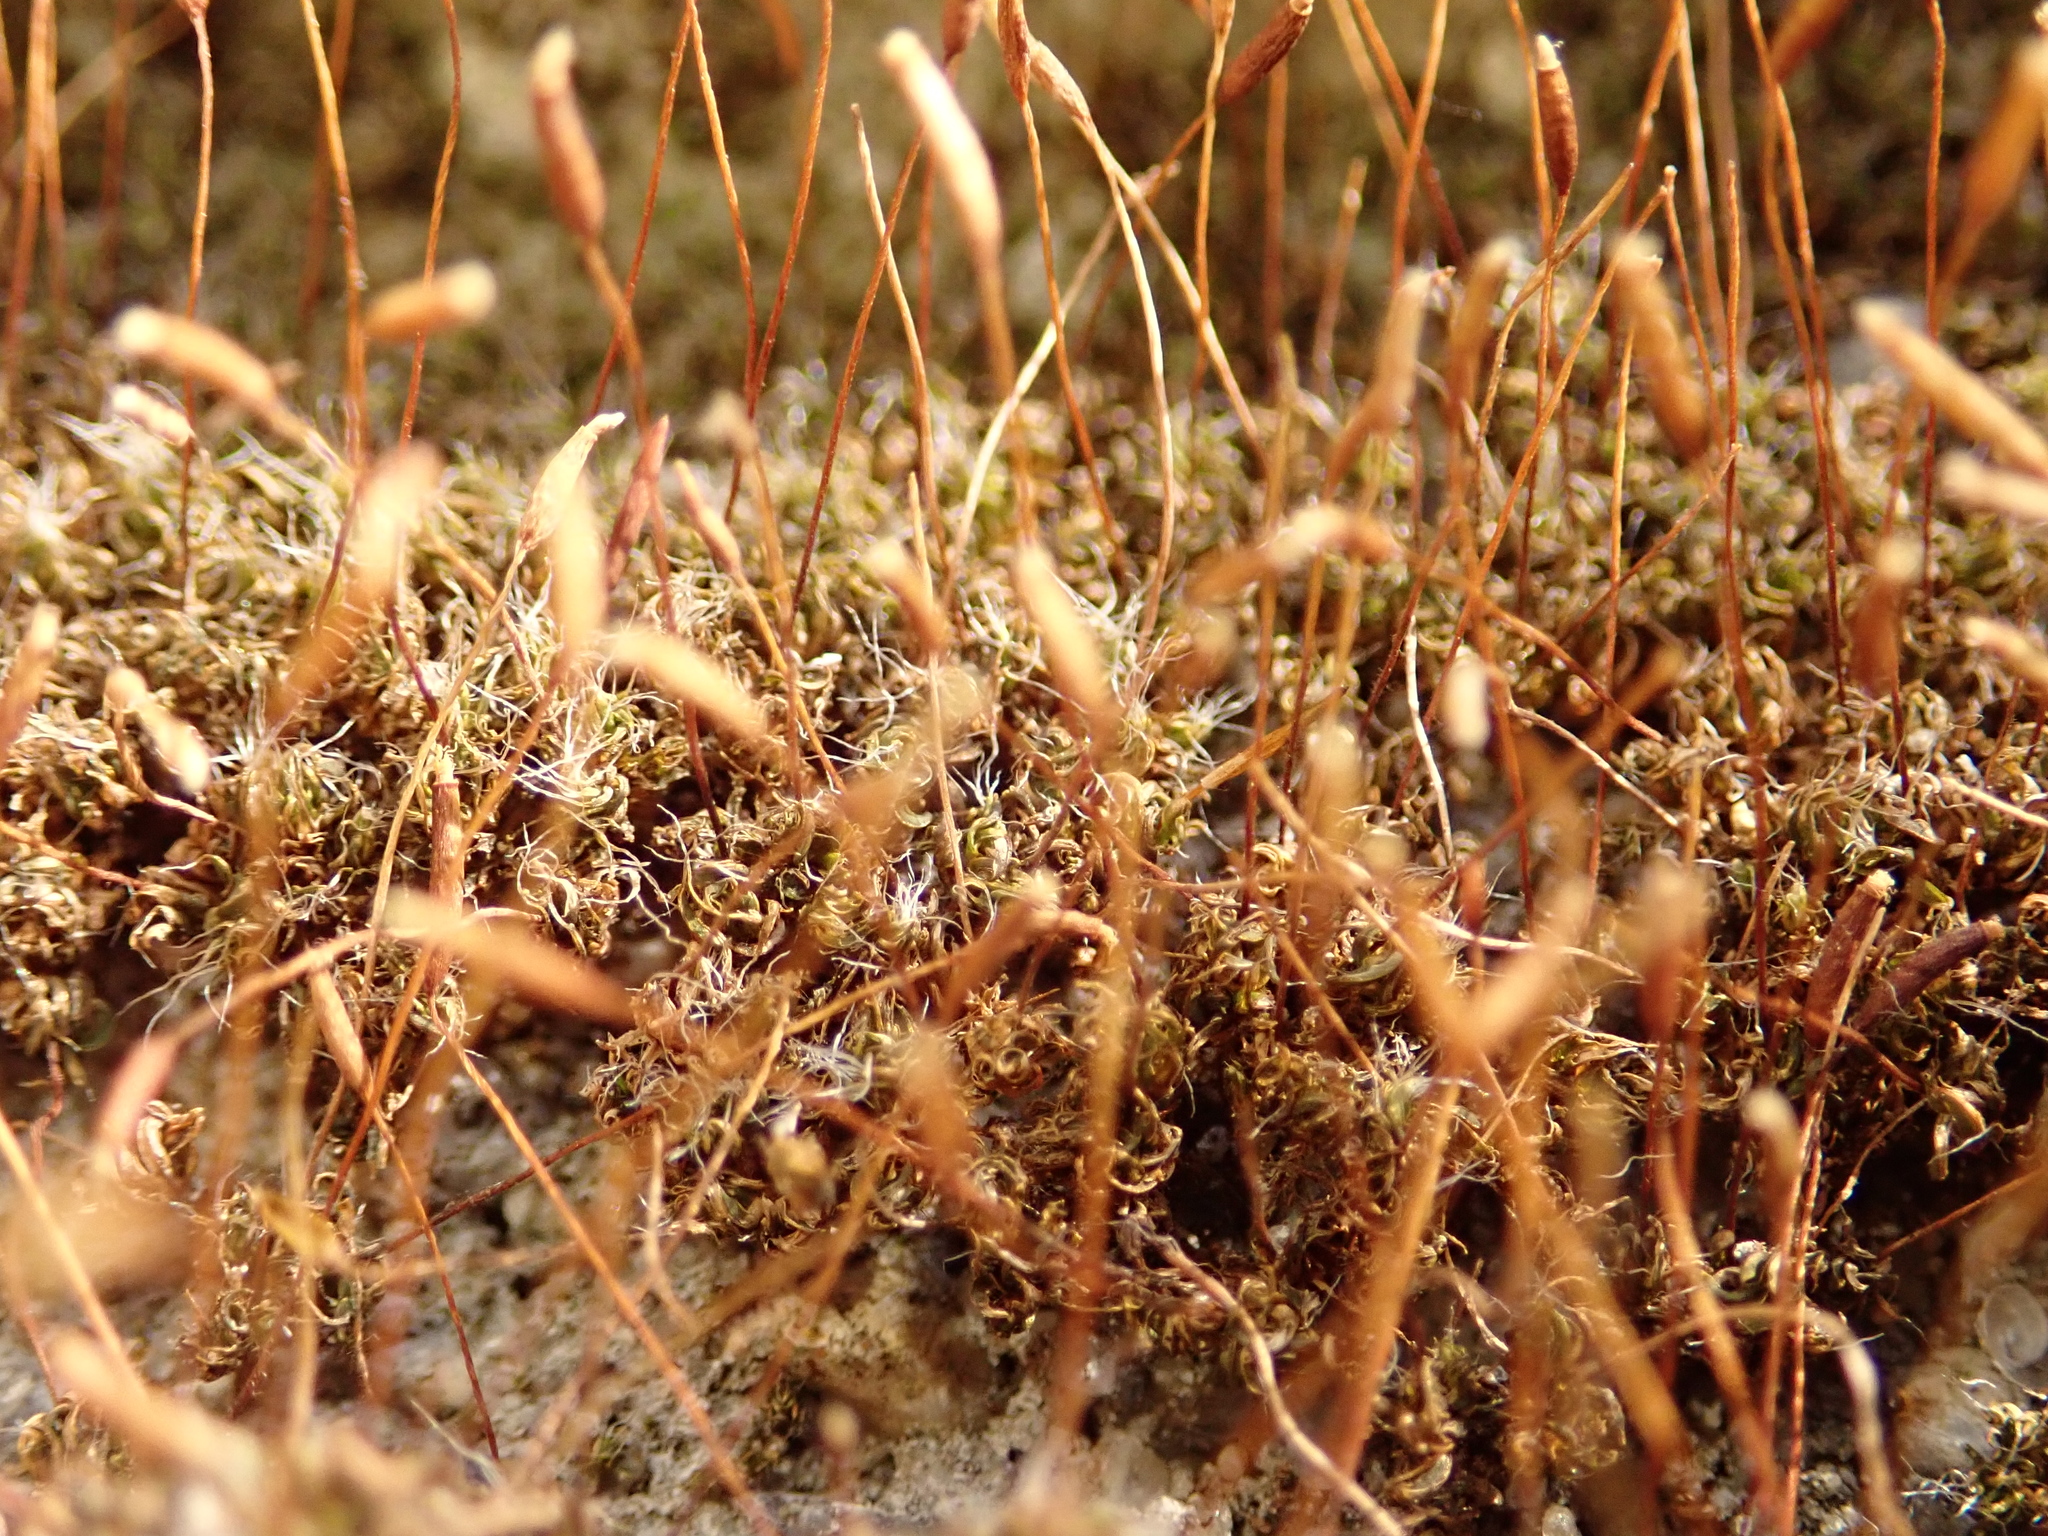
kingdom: Plantae
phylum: Bryophyta
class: Bryopsida
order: Pottiales
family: Pottiaceae
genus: Tortula
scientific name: Tortula muralis
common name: Wall screw-moss
